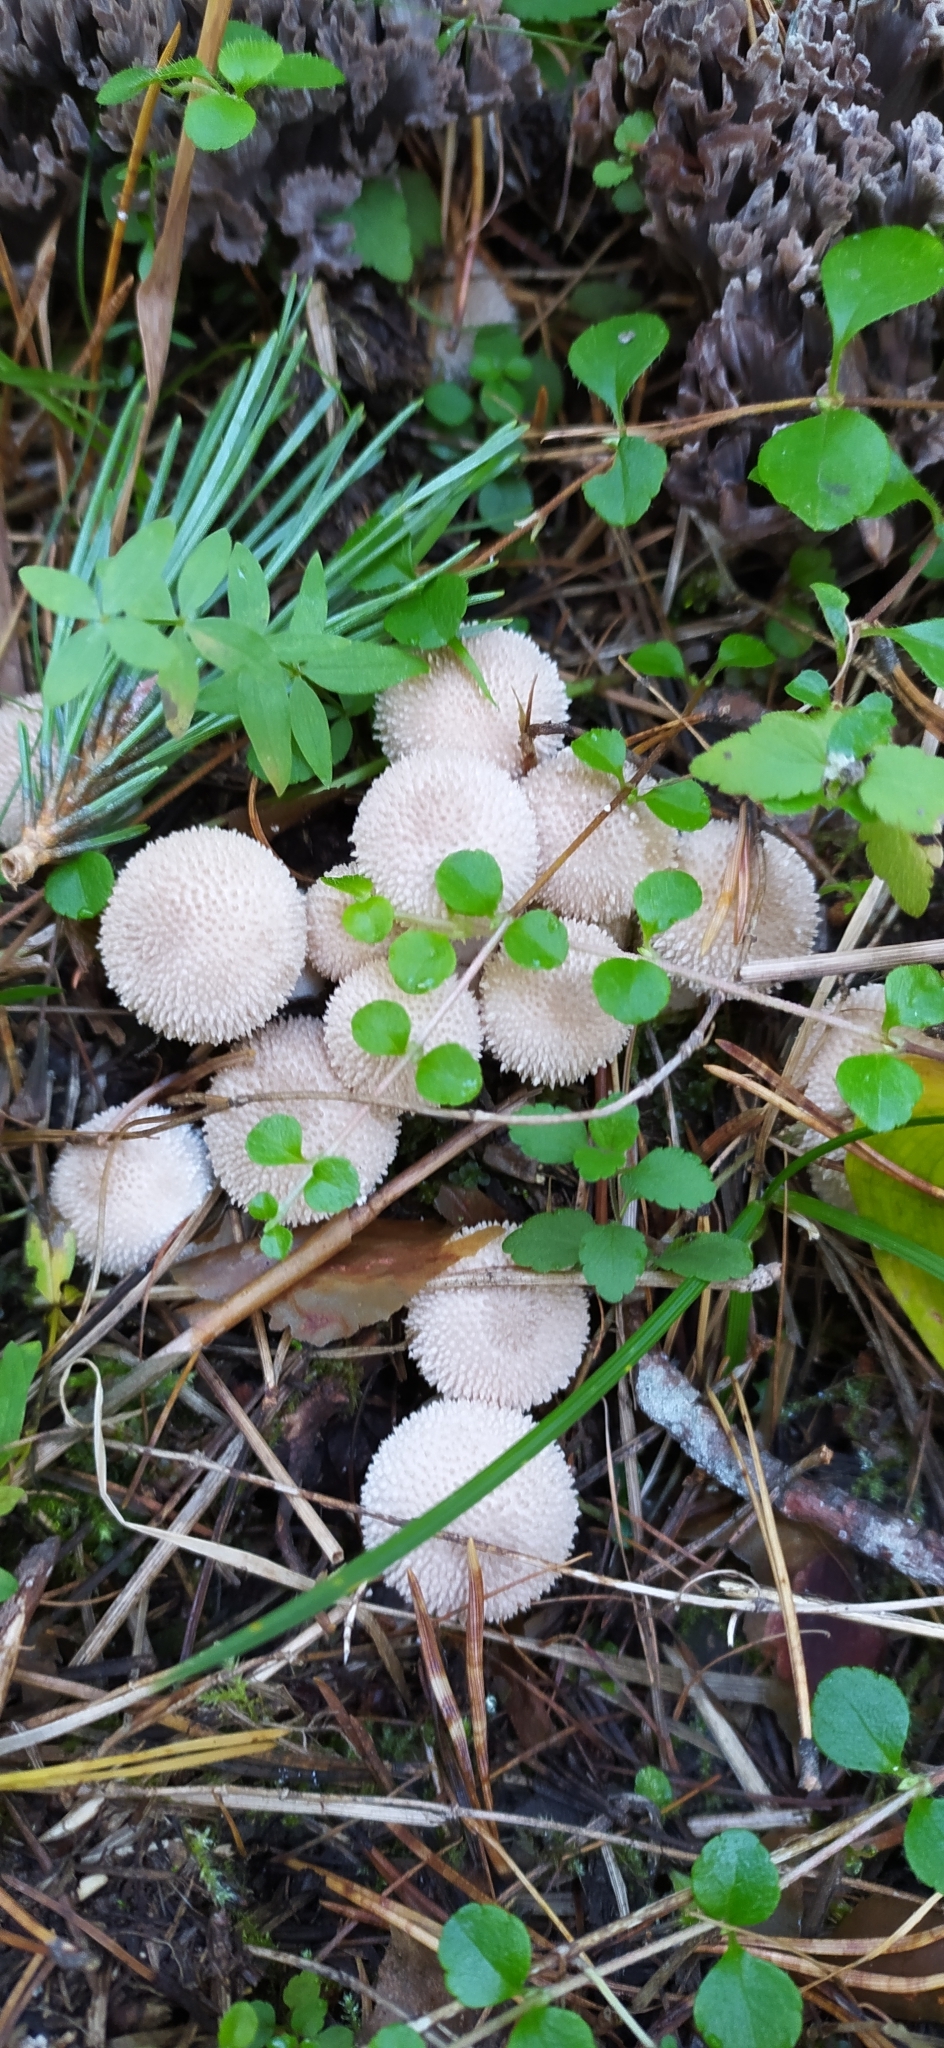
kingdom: Fungi
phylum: Basidiomycota
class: Agaricomycetes
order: Agaricales
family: Lycoperdaceae
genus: Lycoperdon
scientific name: Lycoperdon perlatum
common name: Common puffball
